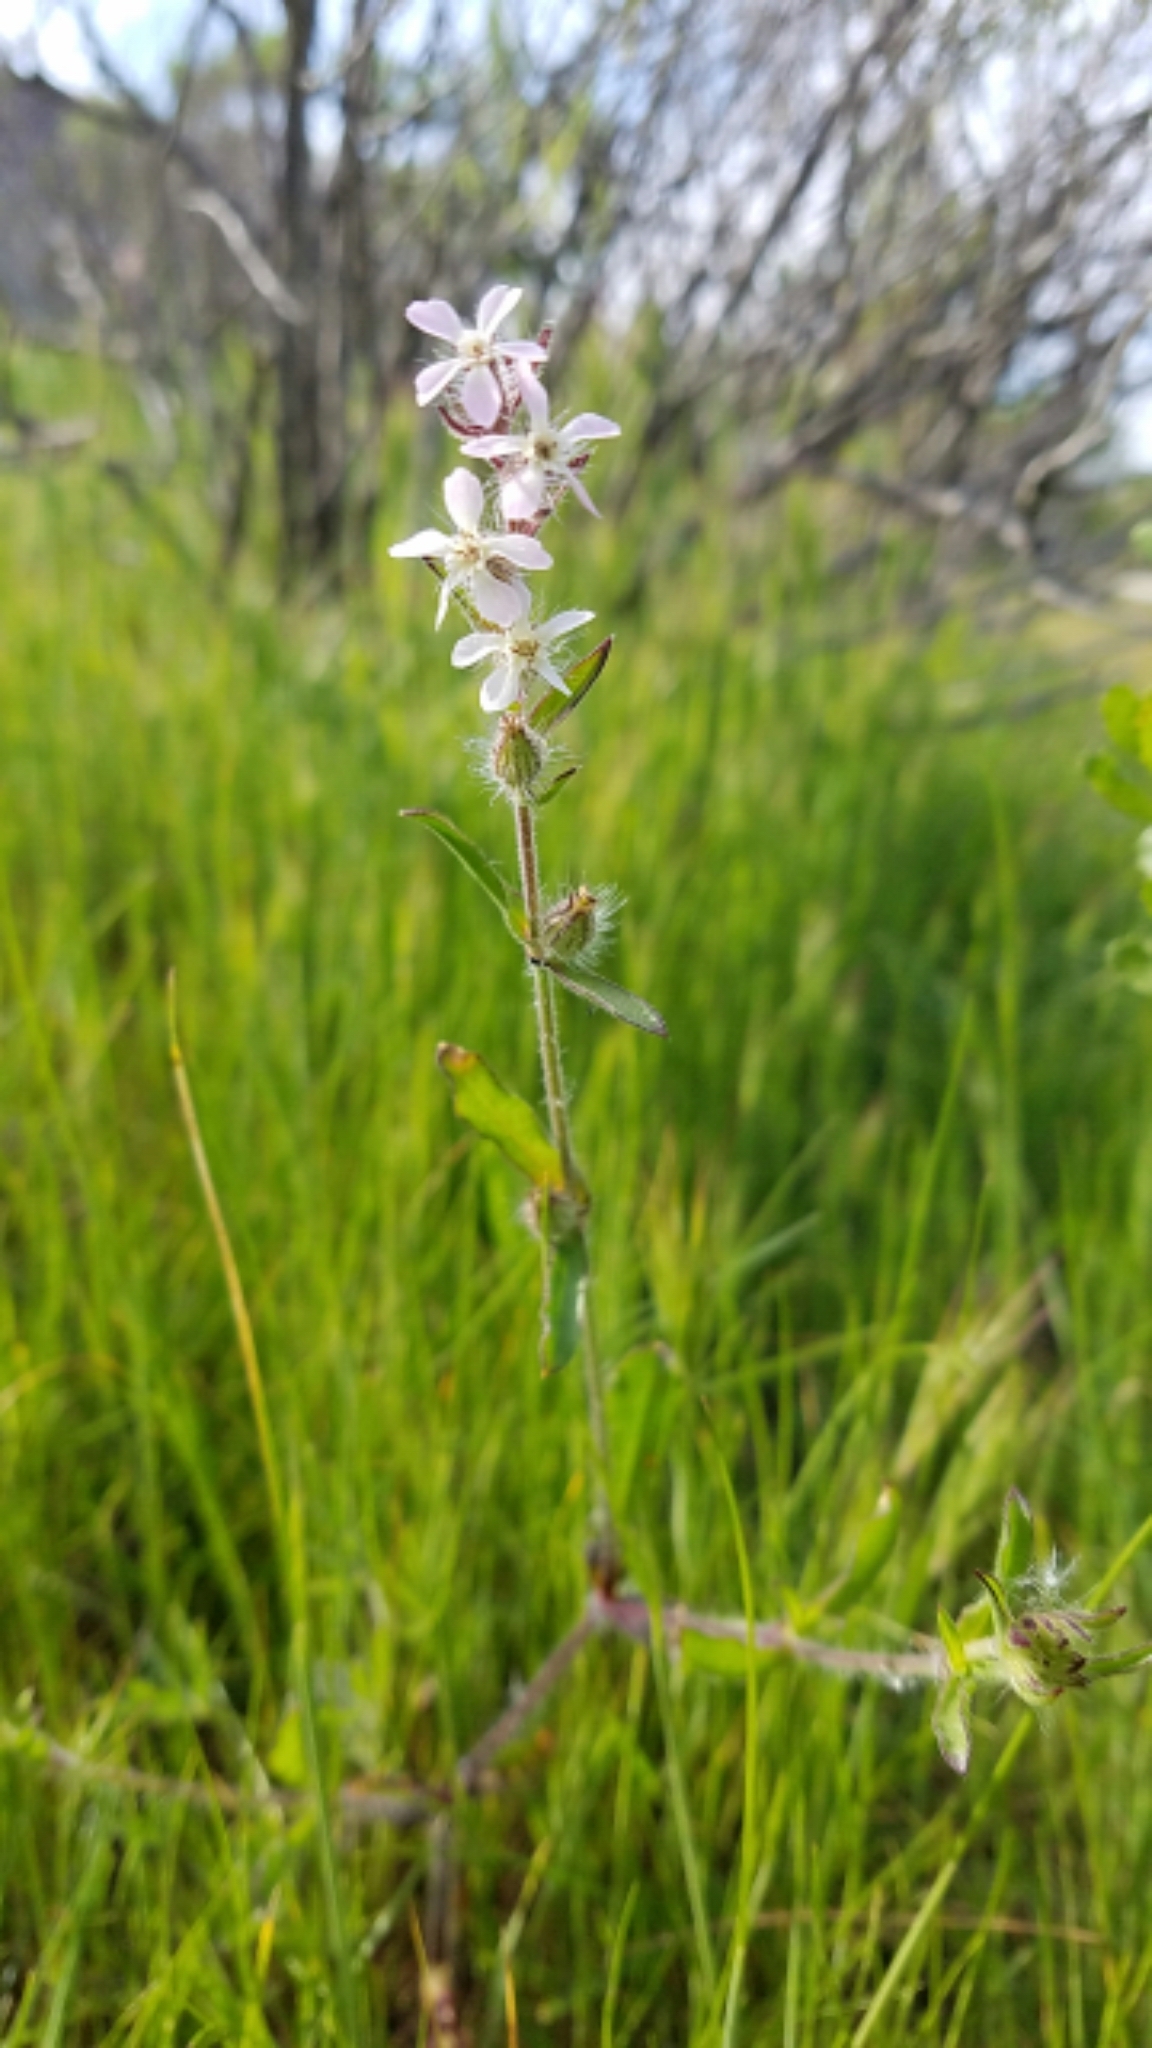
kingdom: Plantae
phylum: Tracheophyta
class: Magnoliopsida
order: Caryophyllales
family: Caryophyllaceae
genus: Silene
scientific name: Silene gallica
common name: Small-flowered catchfly
